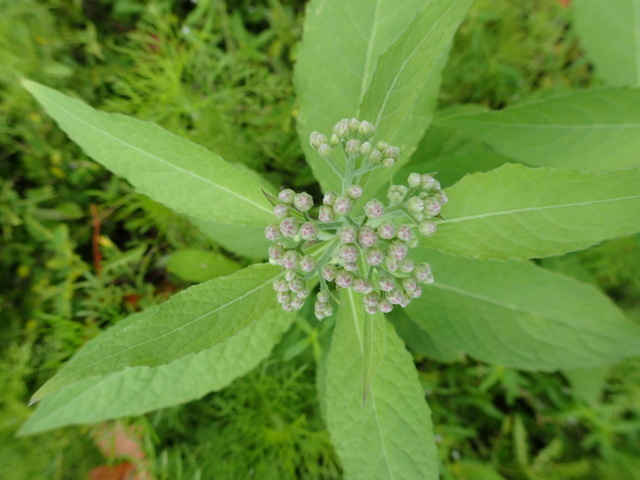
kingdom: Plantae
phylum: Tracheophyta
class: Magnoliopsida
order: Asterales
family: Asteraceae
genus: Pluchea
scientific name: Pluchea camphorata
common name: Camphor pluchea
